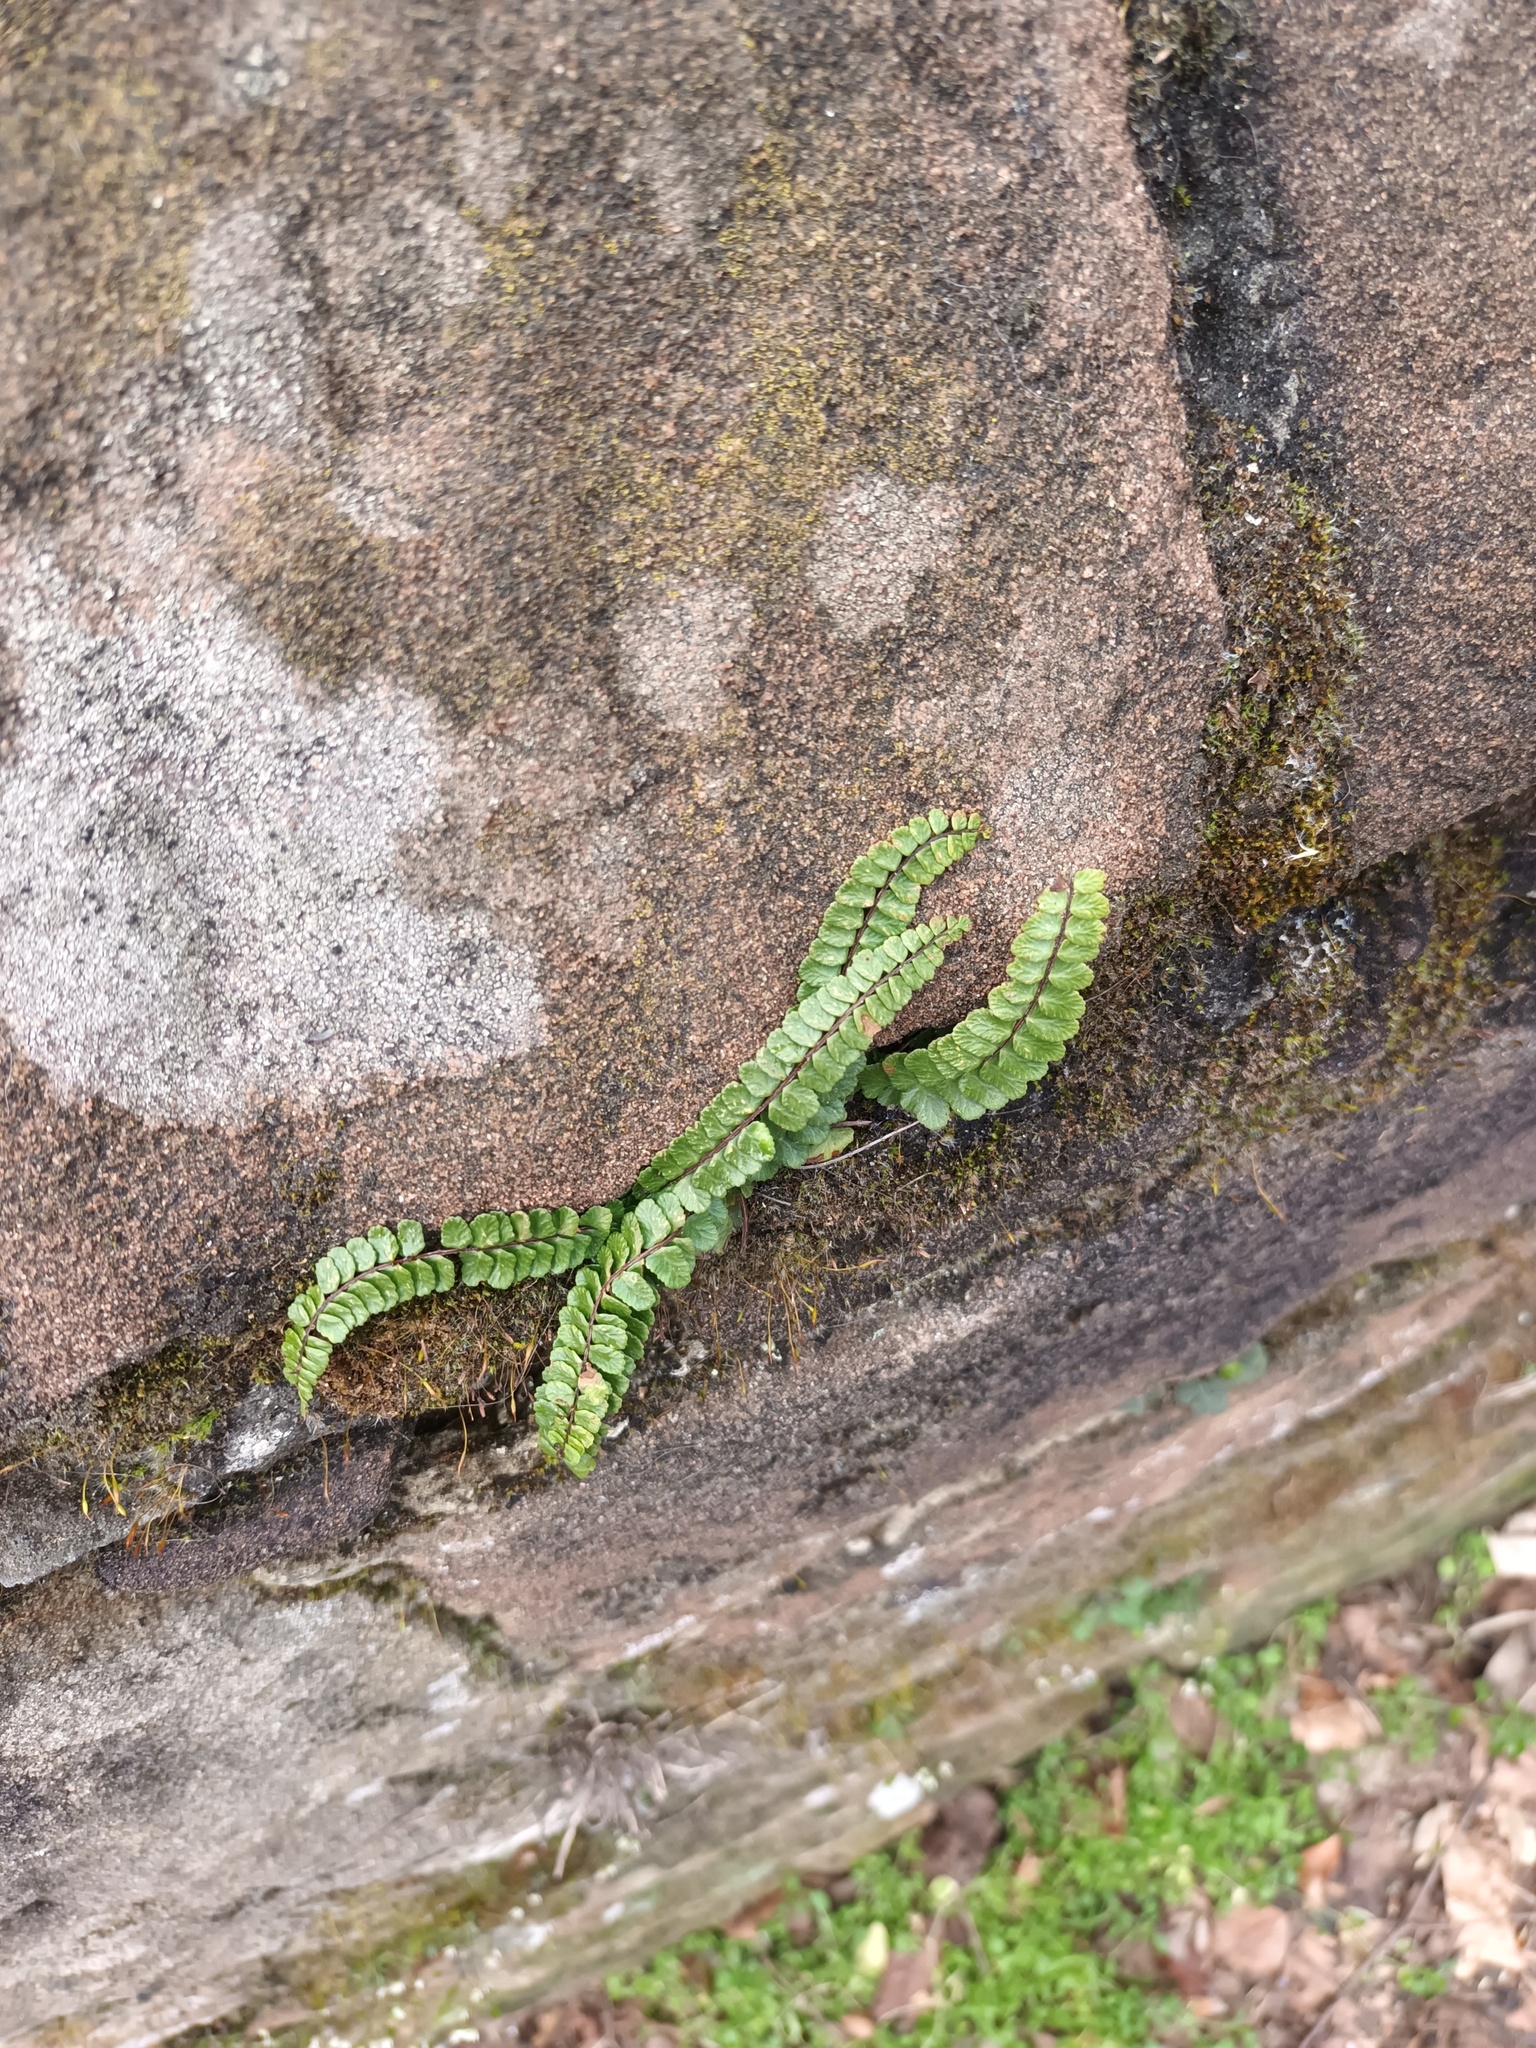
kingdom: Plantae
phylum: Tracheophyta
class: Polypodiopsida
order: Polypodiales
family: Aspleniaceae
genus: Asplenium
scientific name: Asplenium trichomanes
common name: Maidenhair spleenwort
